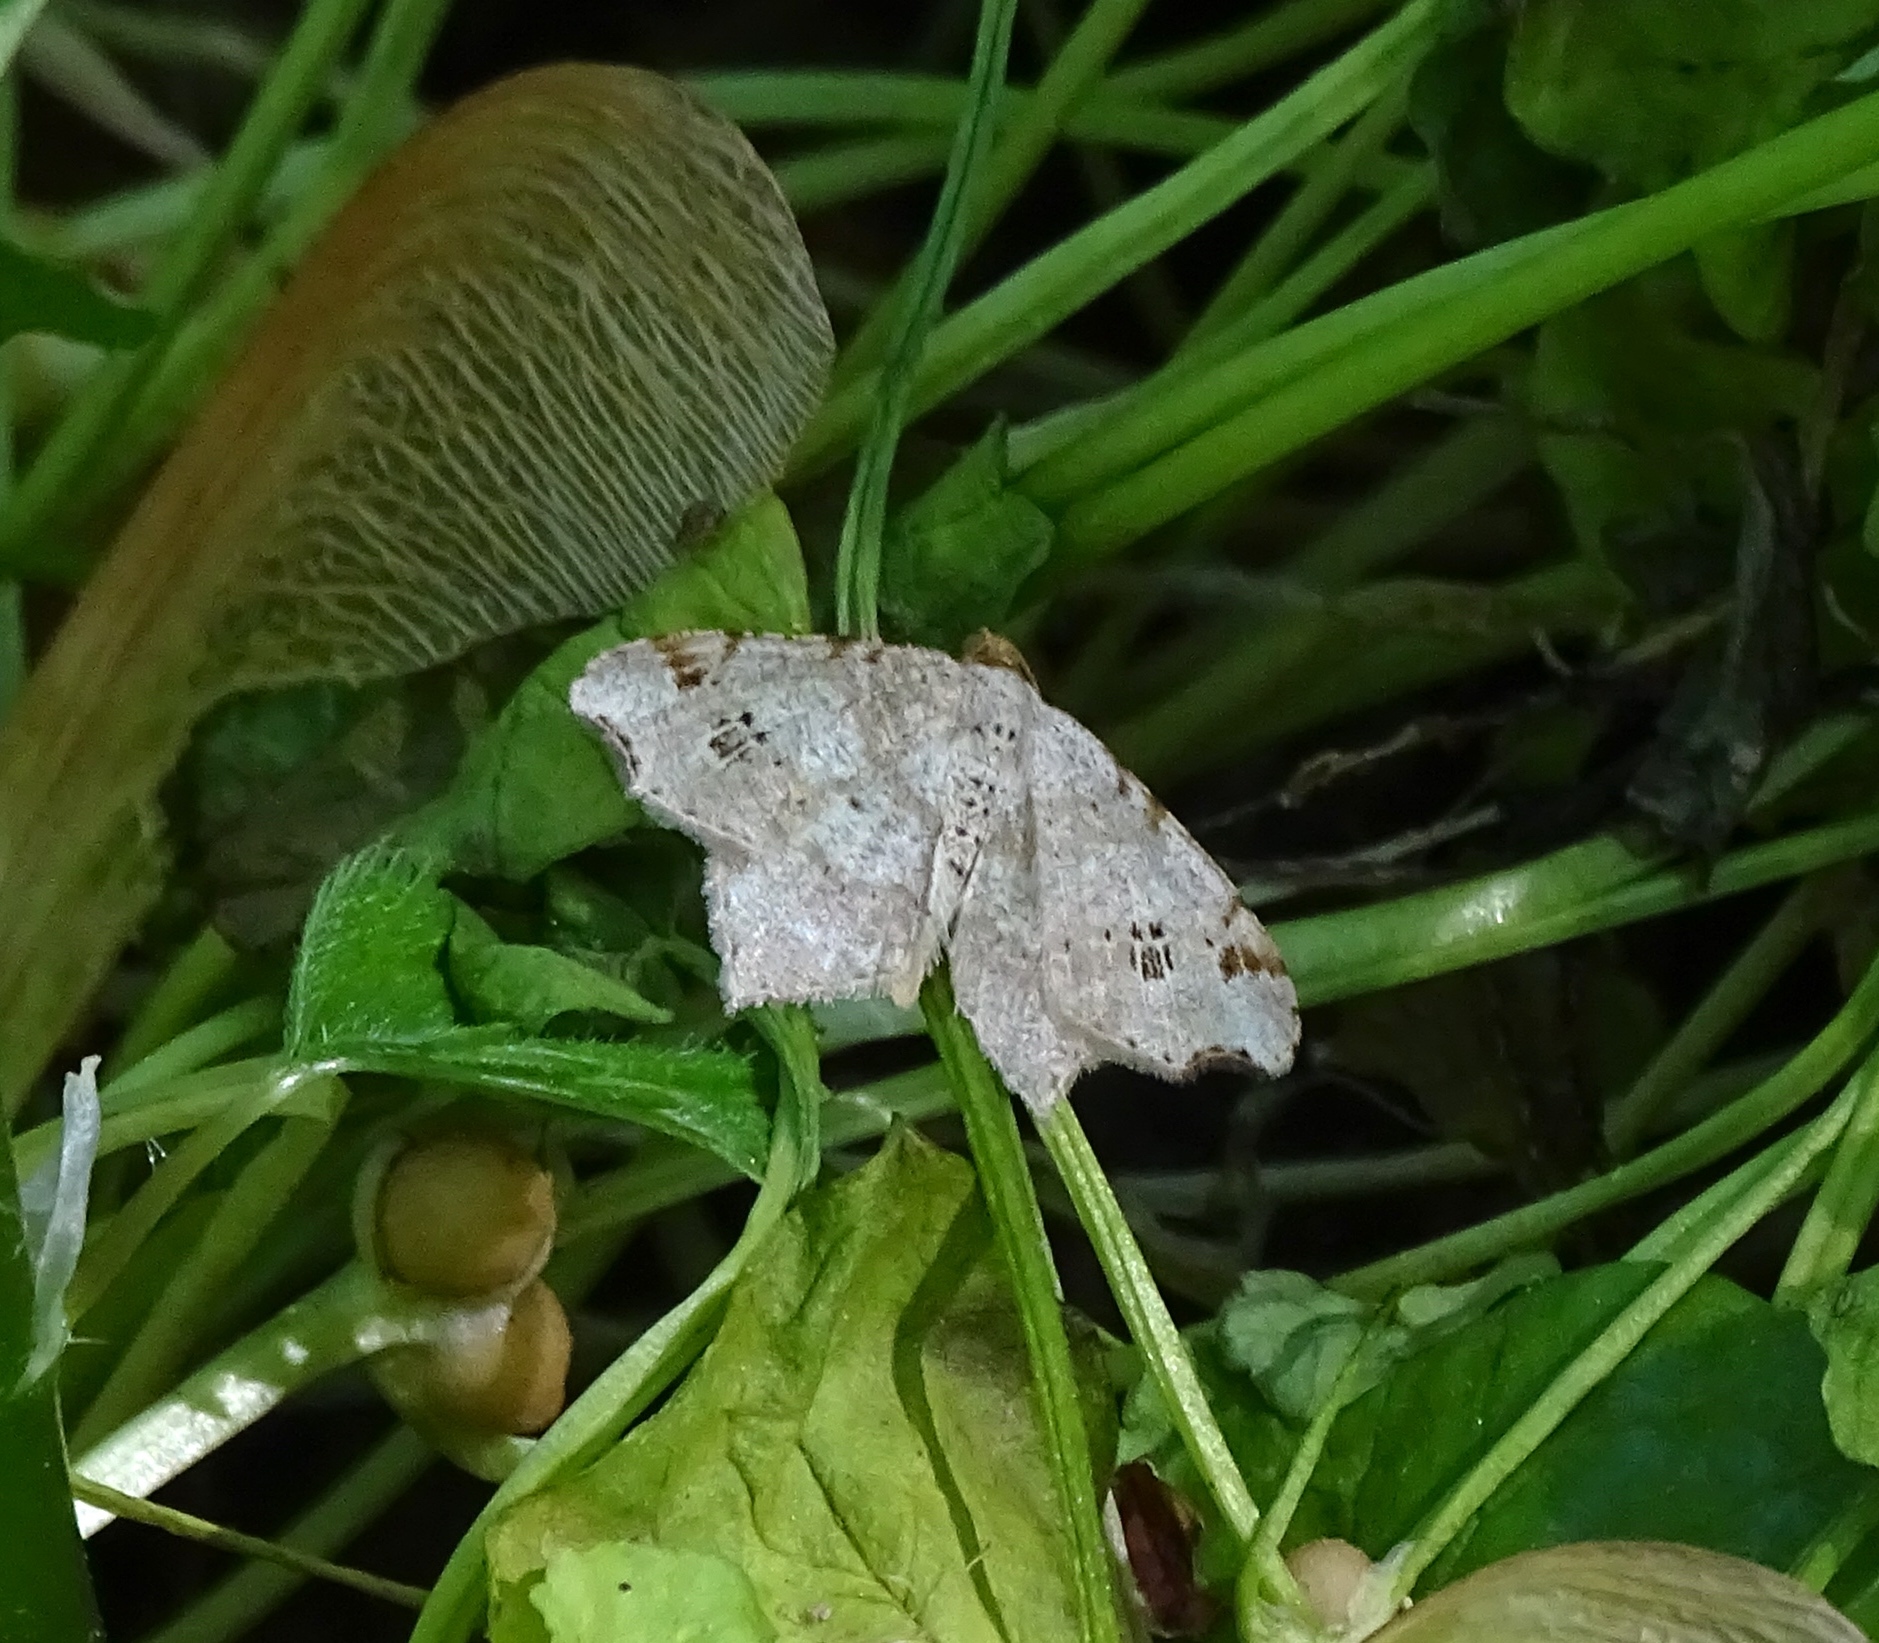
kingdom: Animalia
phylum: Arthropoda
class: Insecta
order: Lepidoptera
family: Geometridae
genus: Macaria
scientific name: Macaria aemulataria
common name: Common angle
